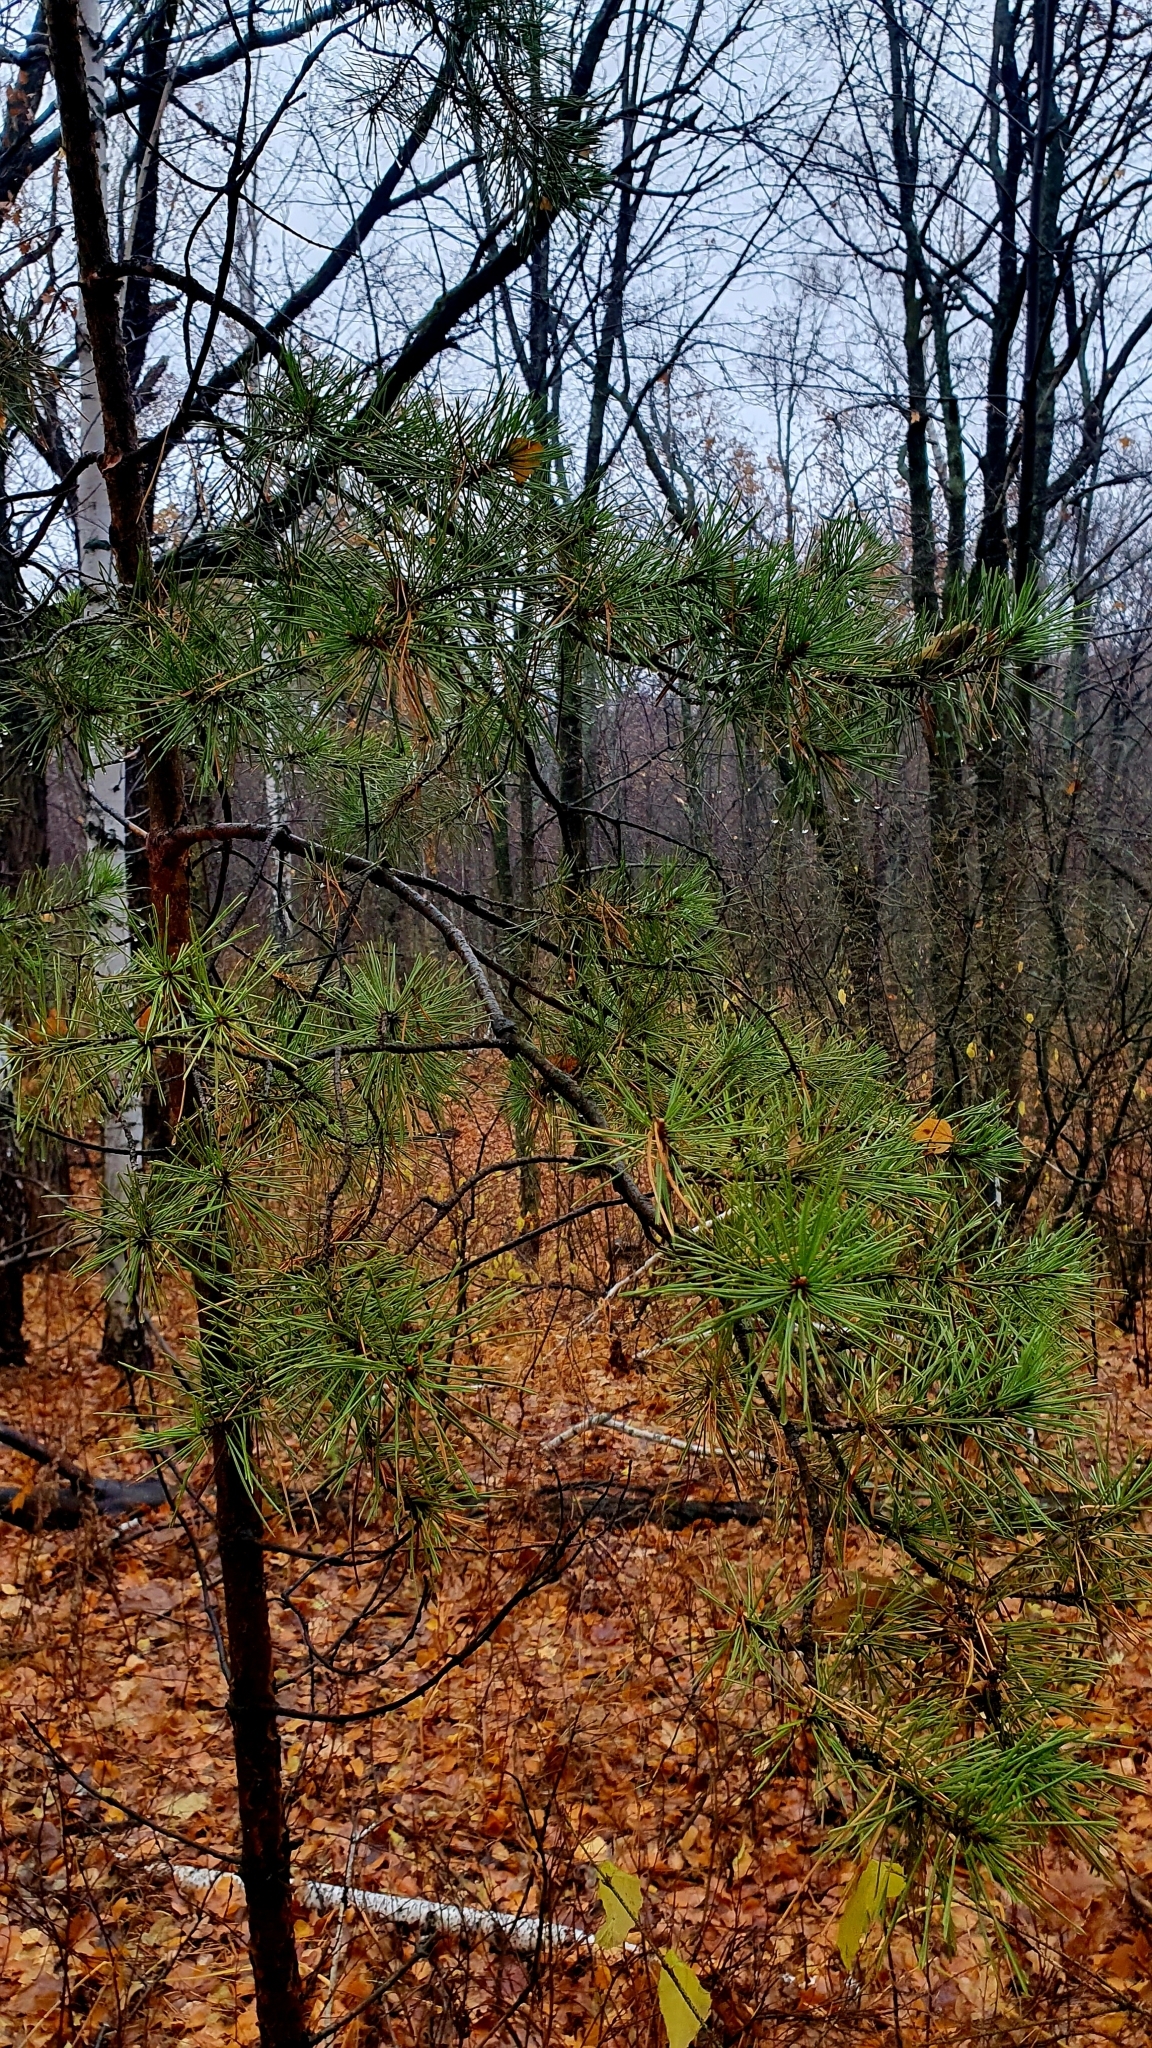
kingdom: Plantae
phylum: Tracheophyta
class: Pinopsida
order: Pinales
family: Pinaceae
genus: Pinus
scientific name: Pinus sylvestris
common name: Scots pine
